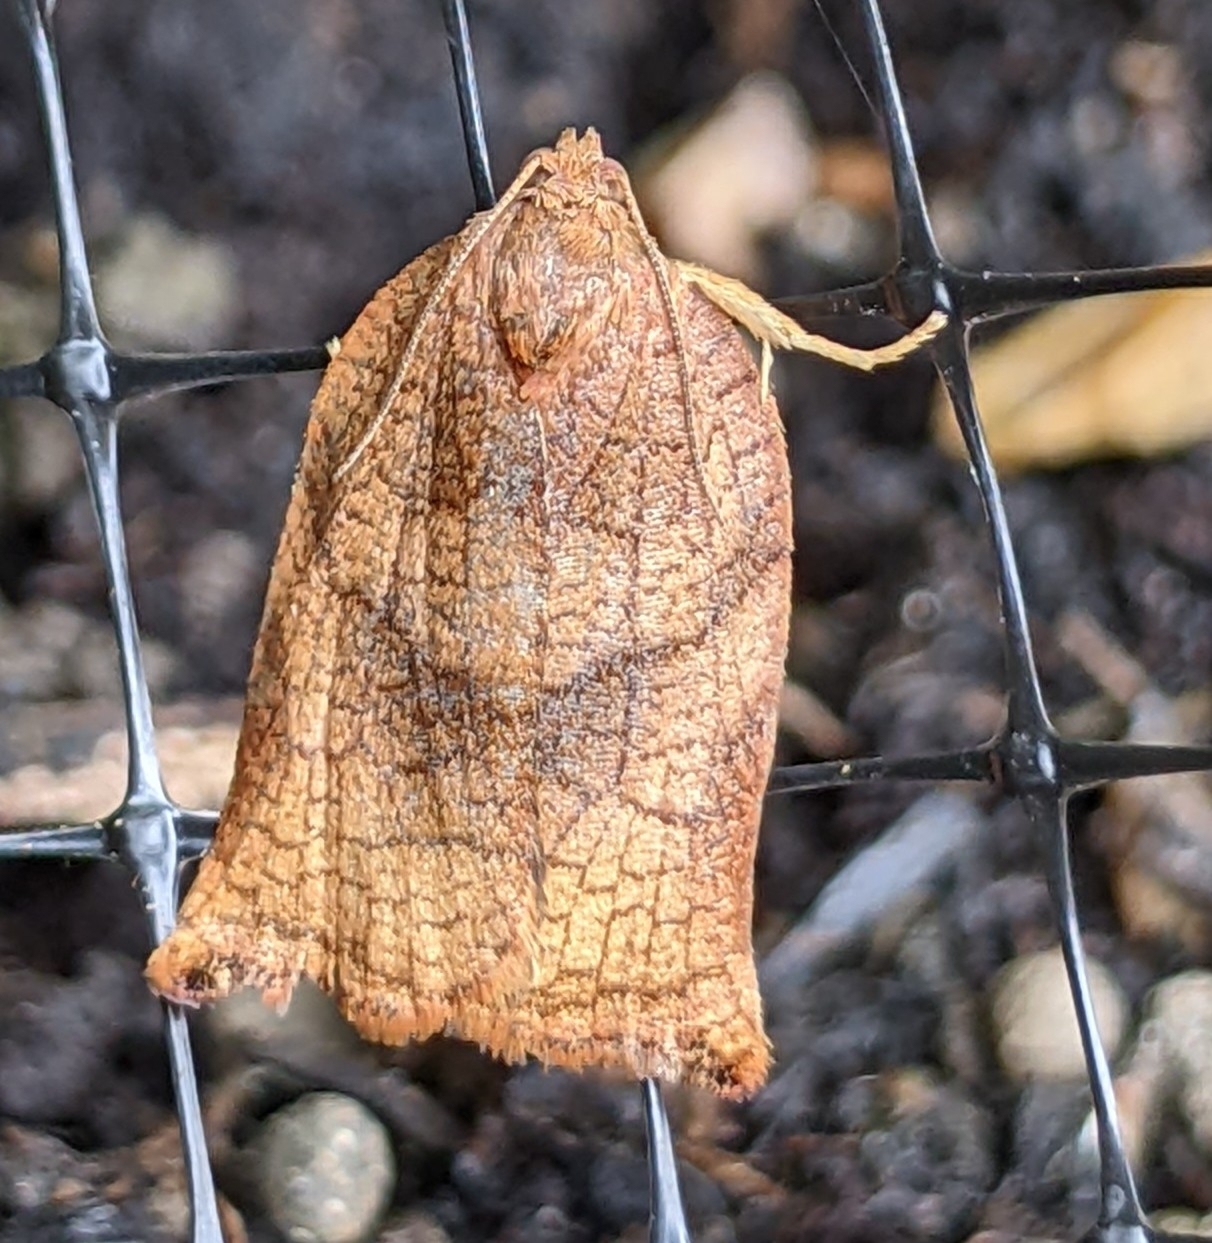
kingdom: Animalia
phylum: Arthropoda
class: Insecta
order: Lepidoptera
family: Tortricidae
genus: Archips
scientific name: Archips podana
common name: Large fruit-tree tortrix
